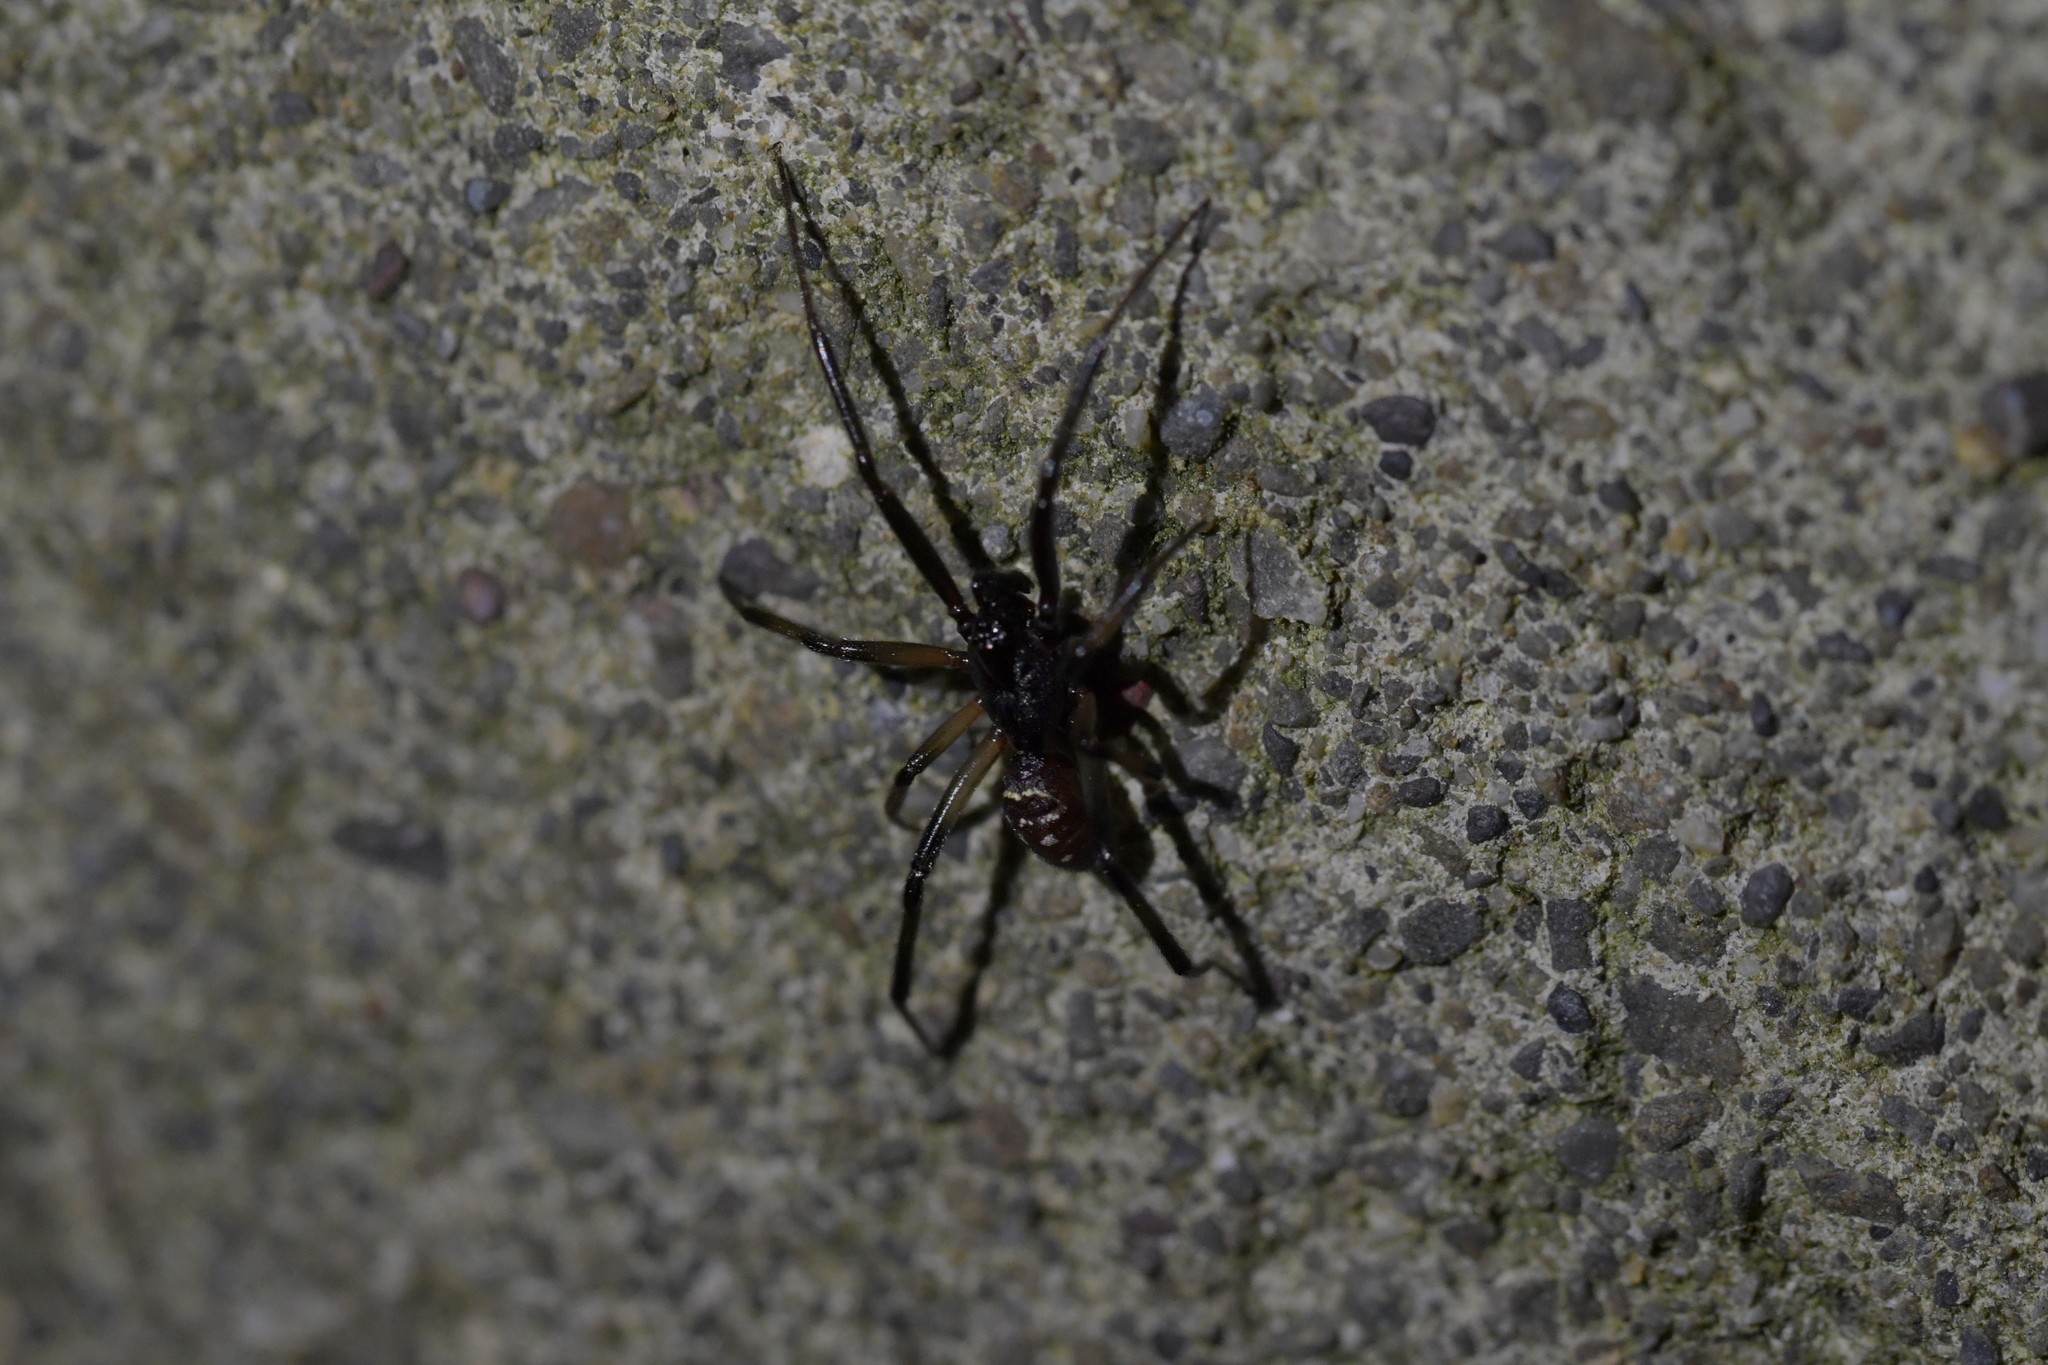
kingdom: Animalia
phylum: Arthropoda
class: Arachnida
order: Araneae
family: Theridiidae
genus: Steatoda
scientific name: Steatoda capensis
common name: Cobweb weaver
